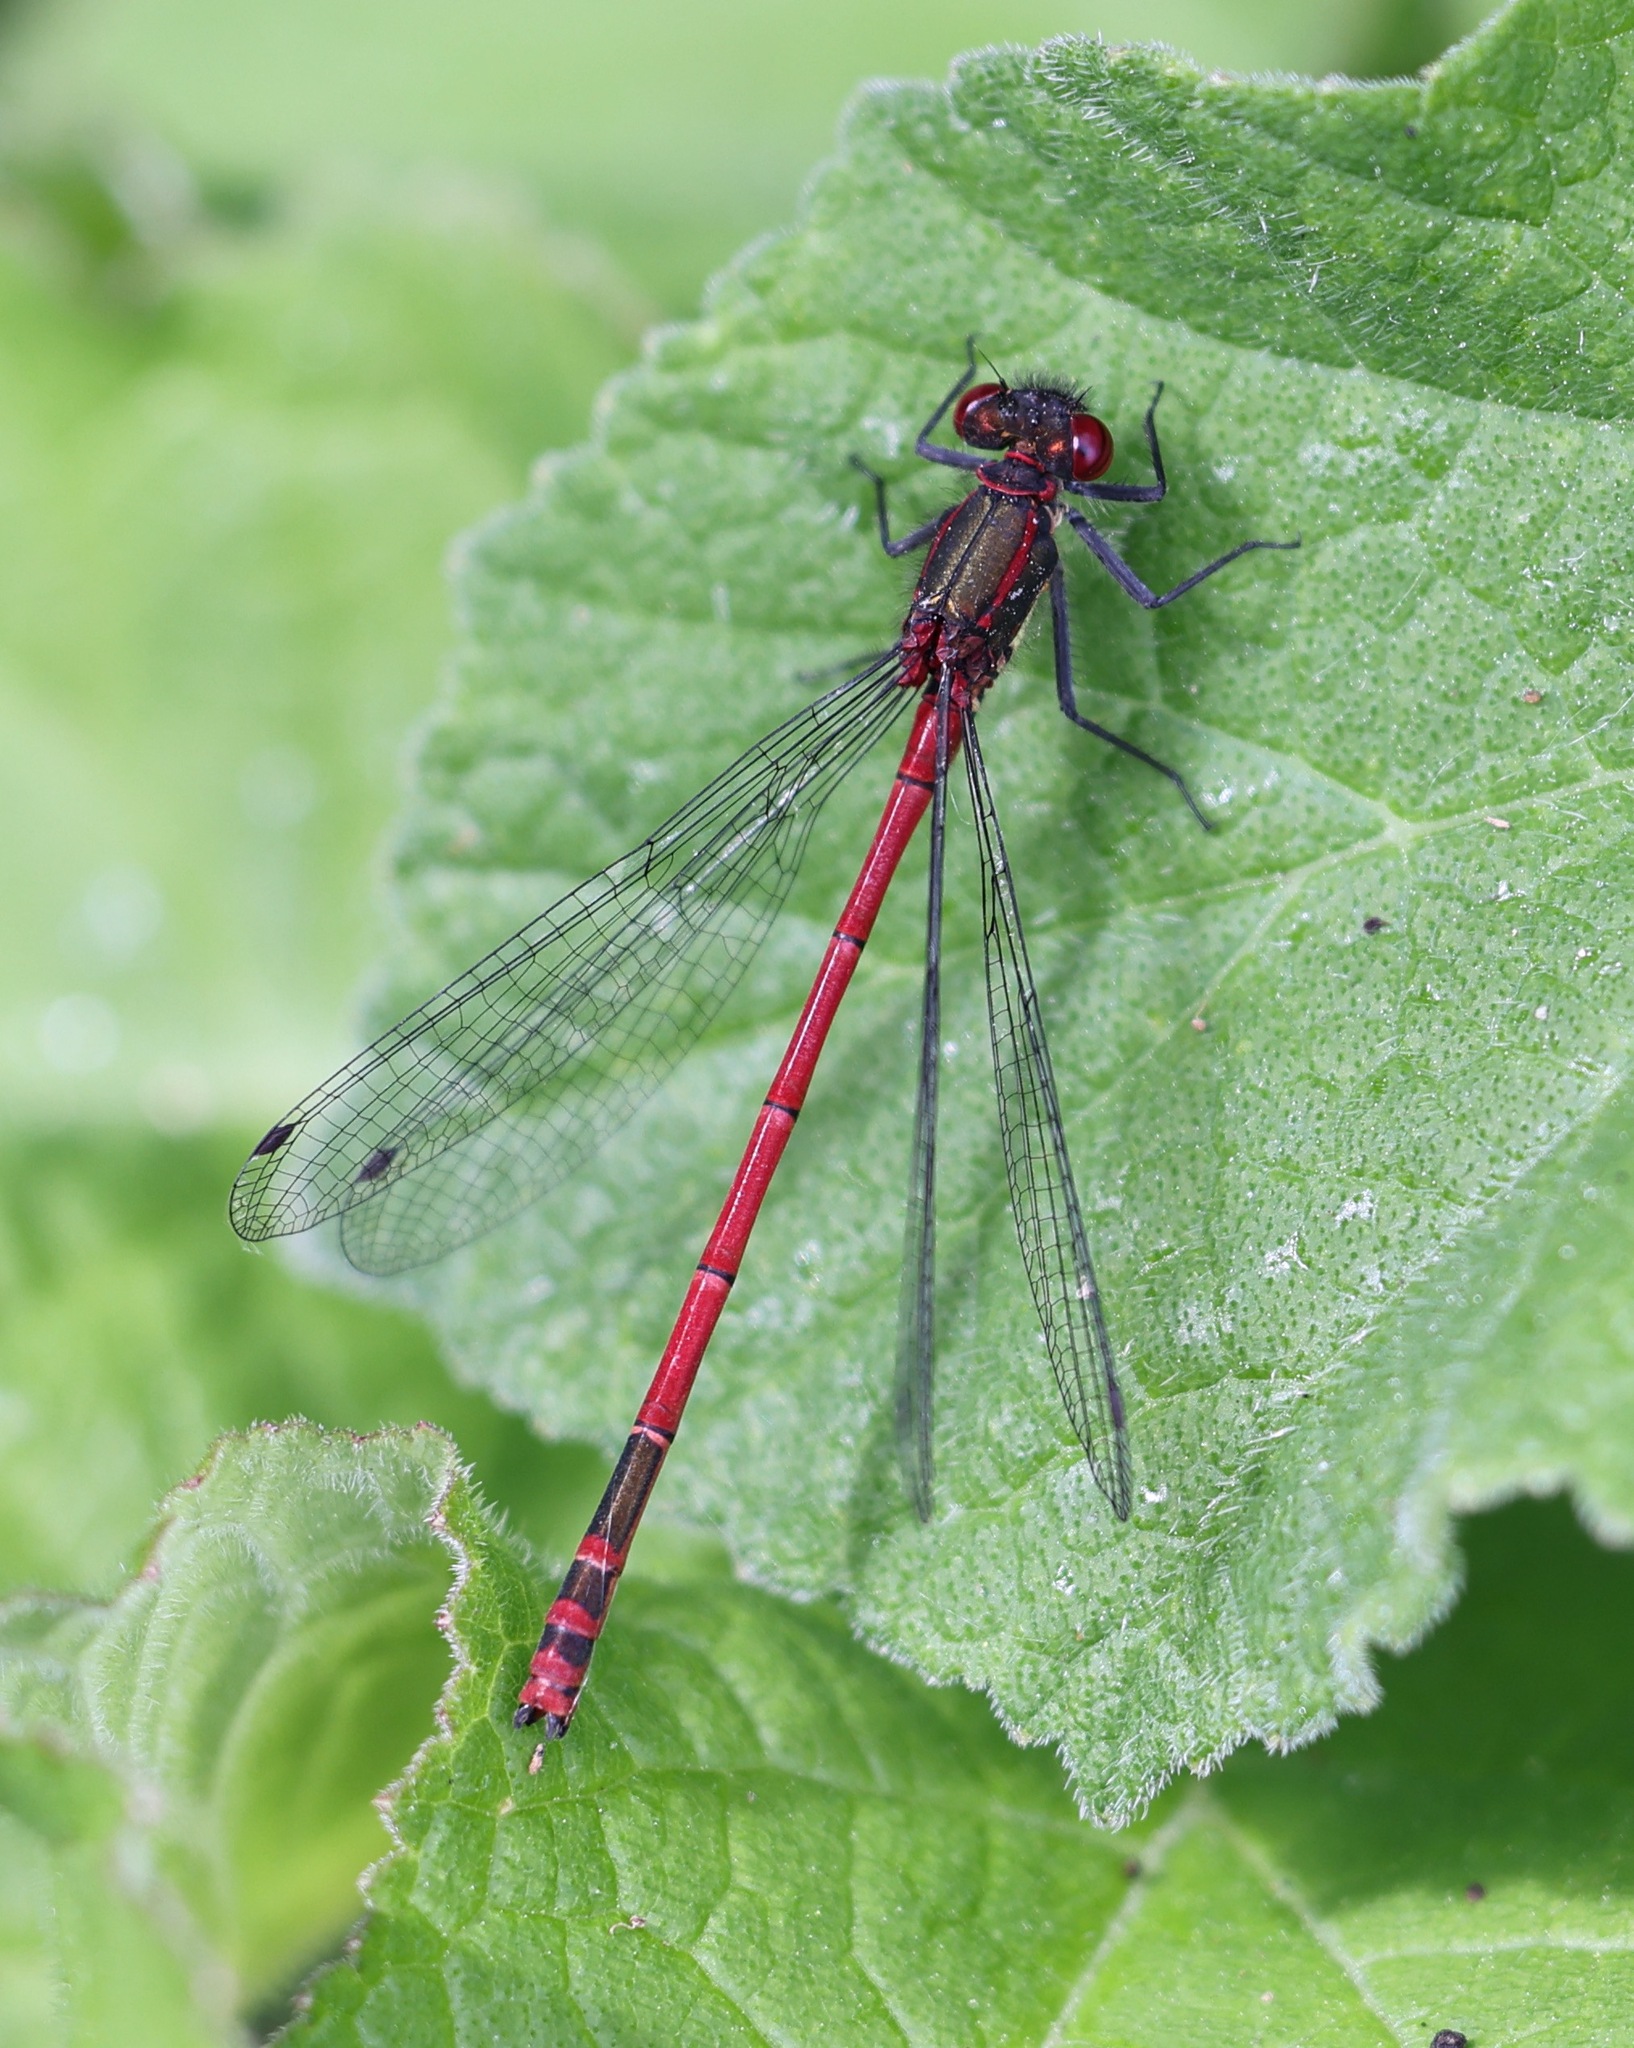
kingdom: Animalia
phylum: Arthropoda
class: Insecta
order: Odonata
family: Coenagrionidae
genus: Pyrrhosoma
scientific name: Pyrrhosoma nymphula
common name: Large red damsel
